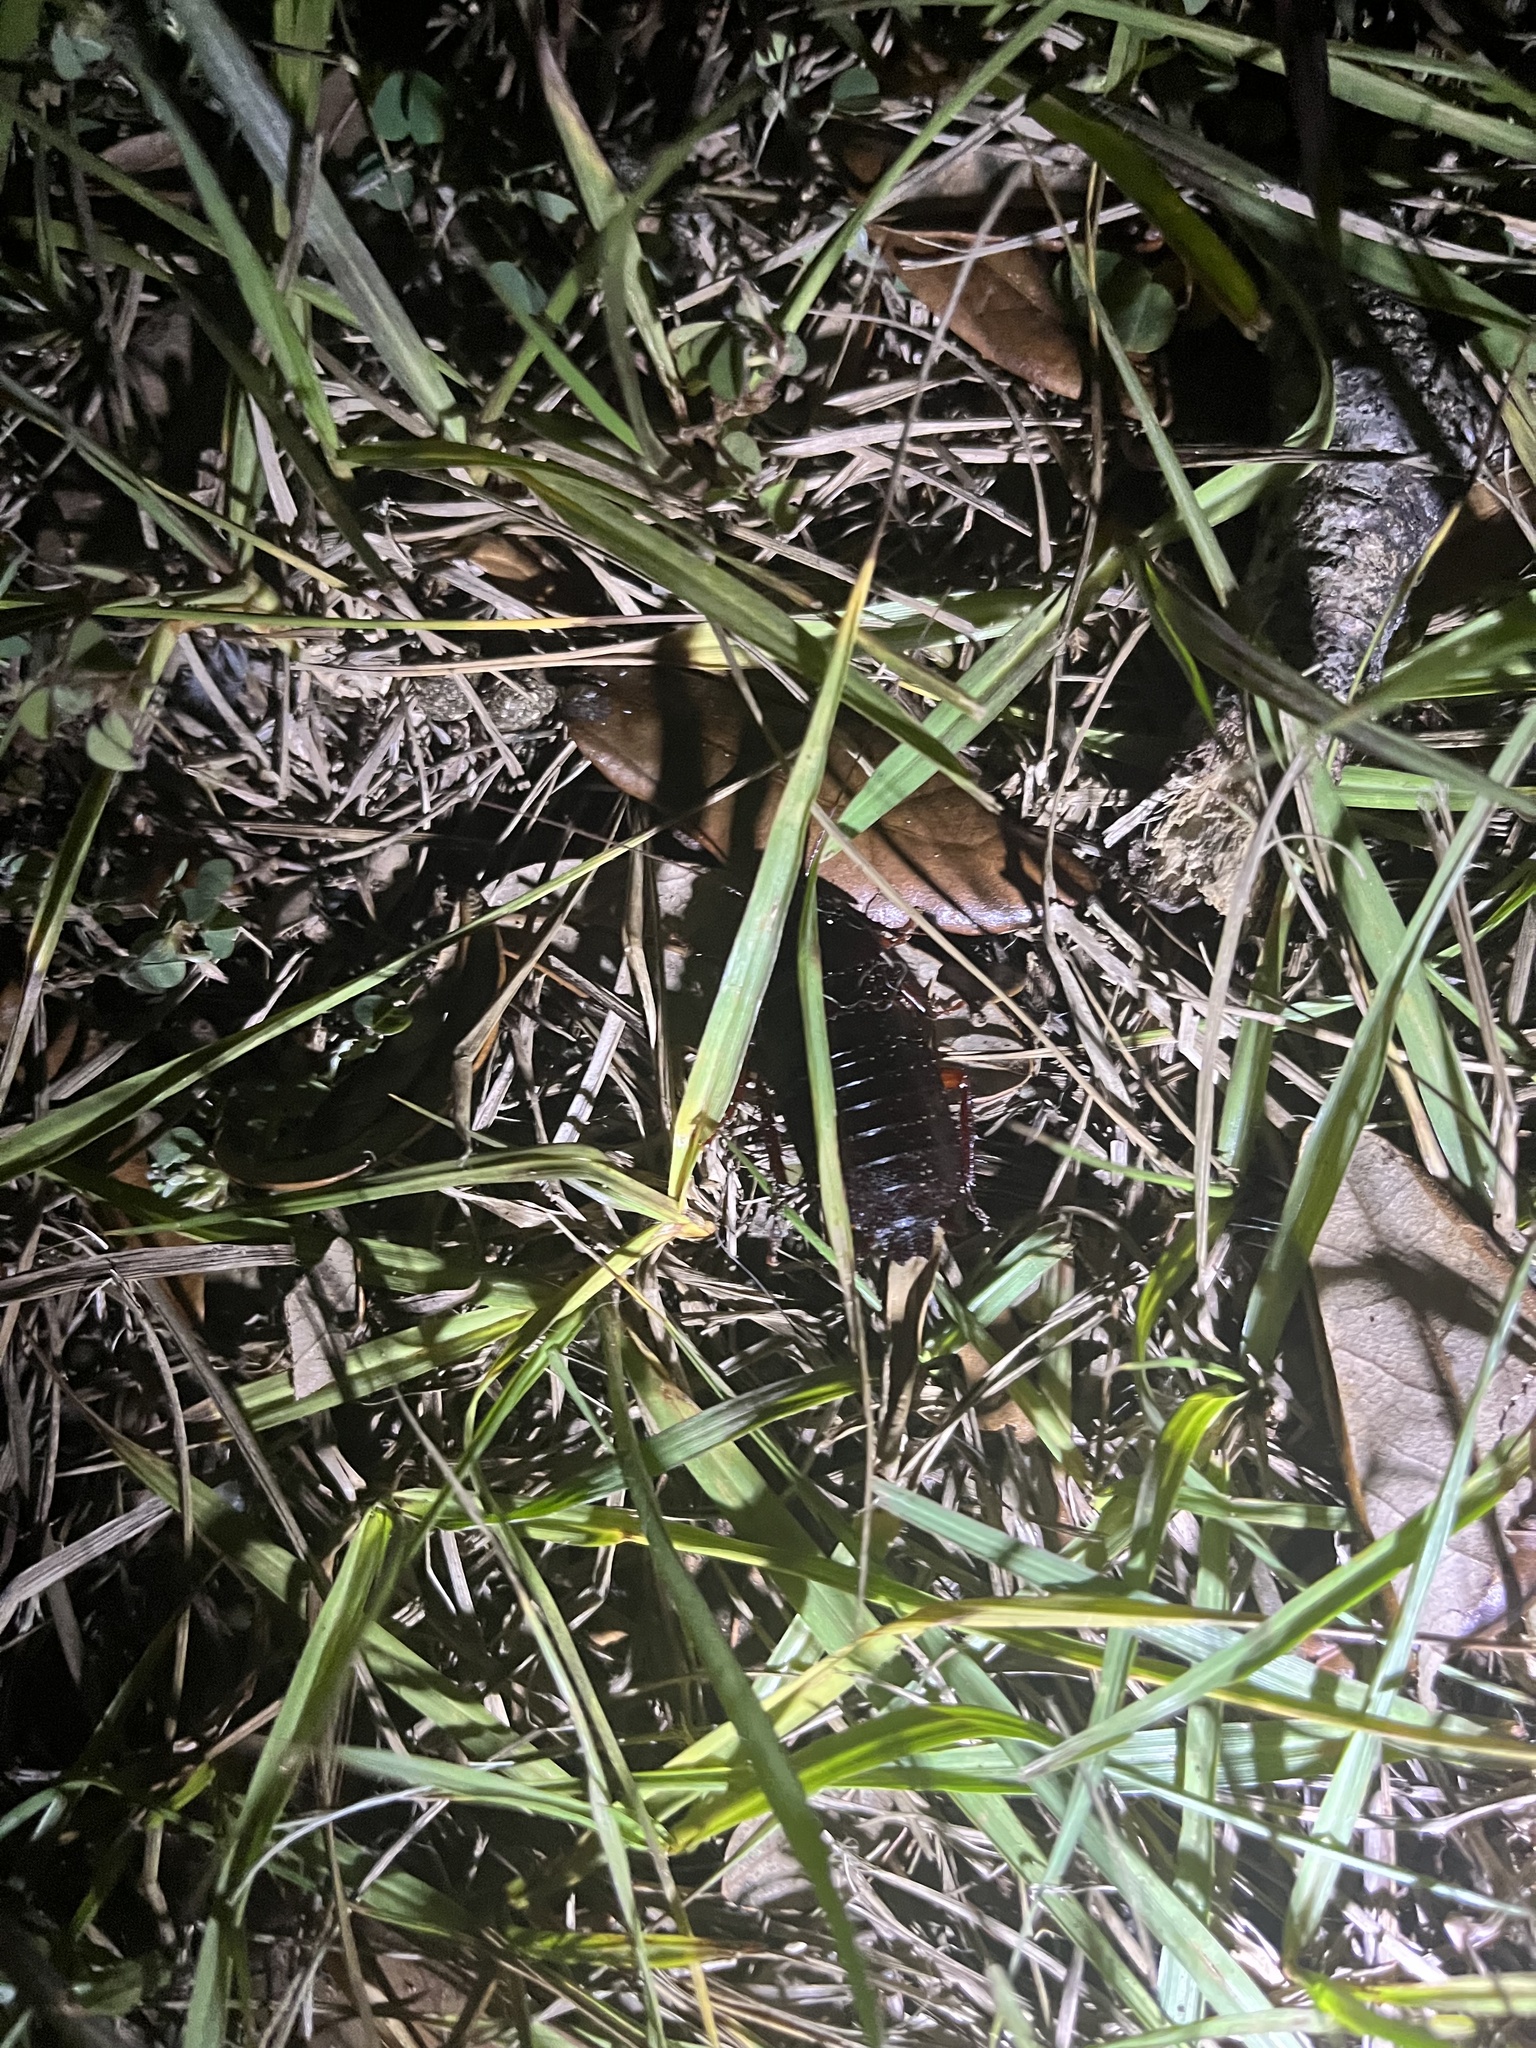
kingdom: Animalia
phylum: Arthropoda
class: Insecta
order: Blattodea
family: Blattidae
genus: Eurycotis
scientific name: Eurycotis floridana
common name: Florida cockroach
